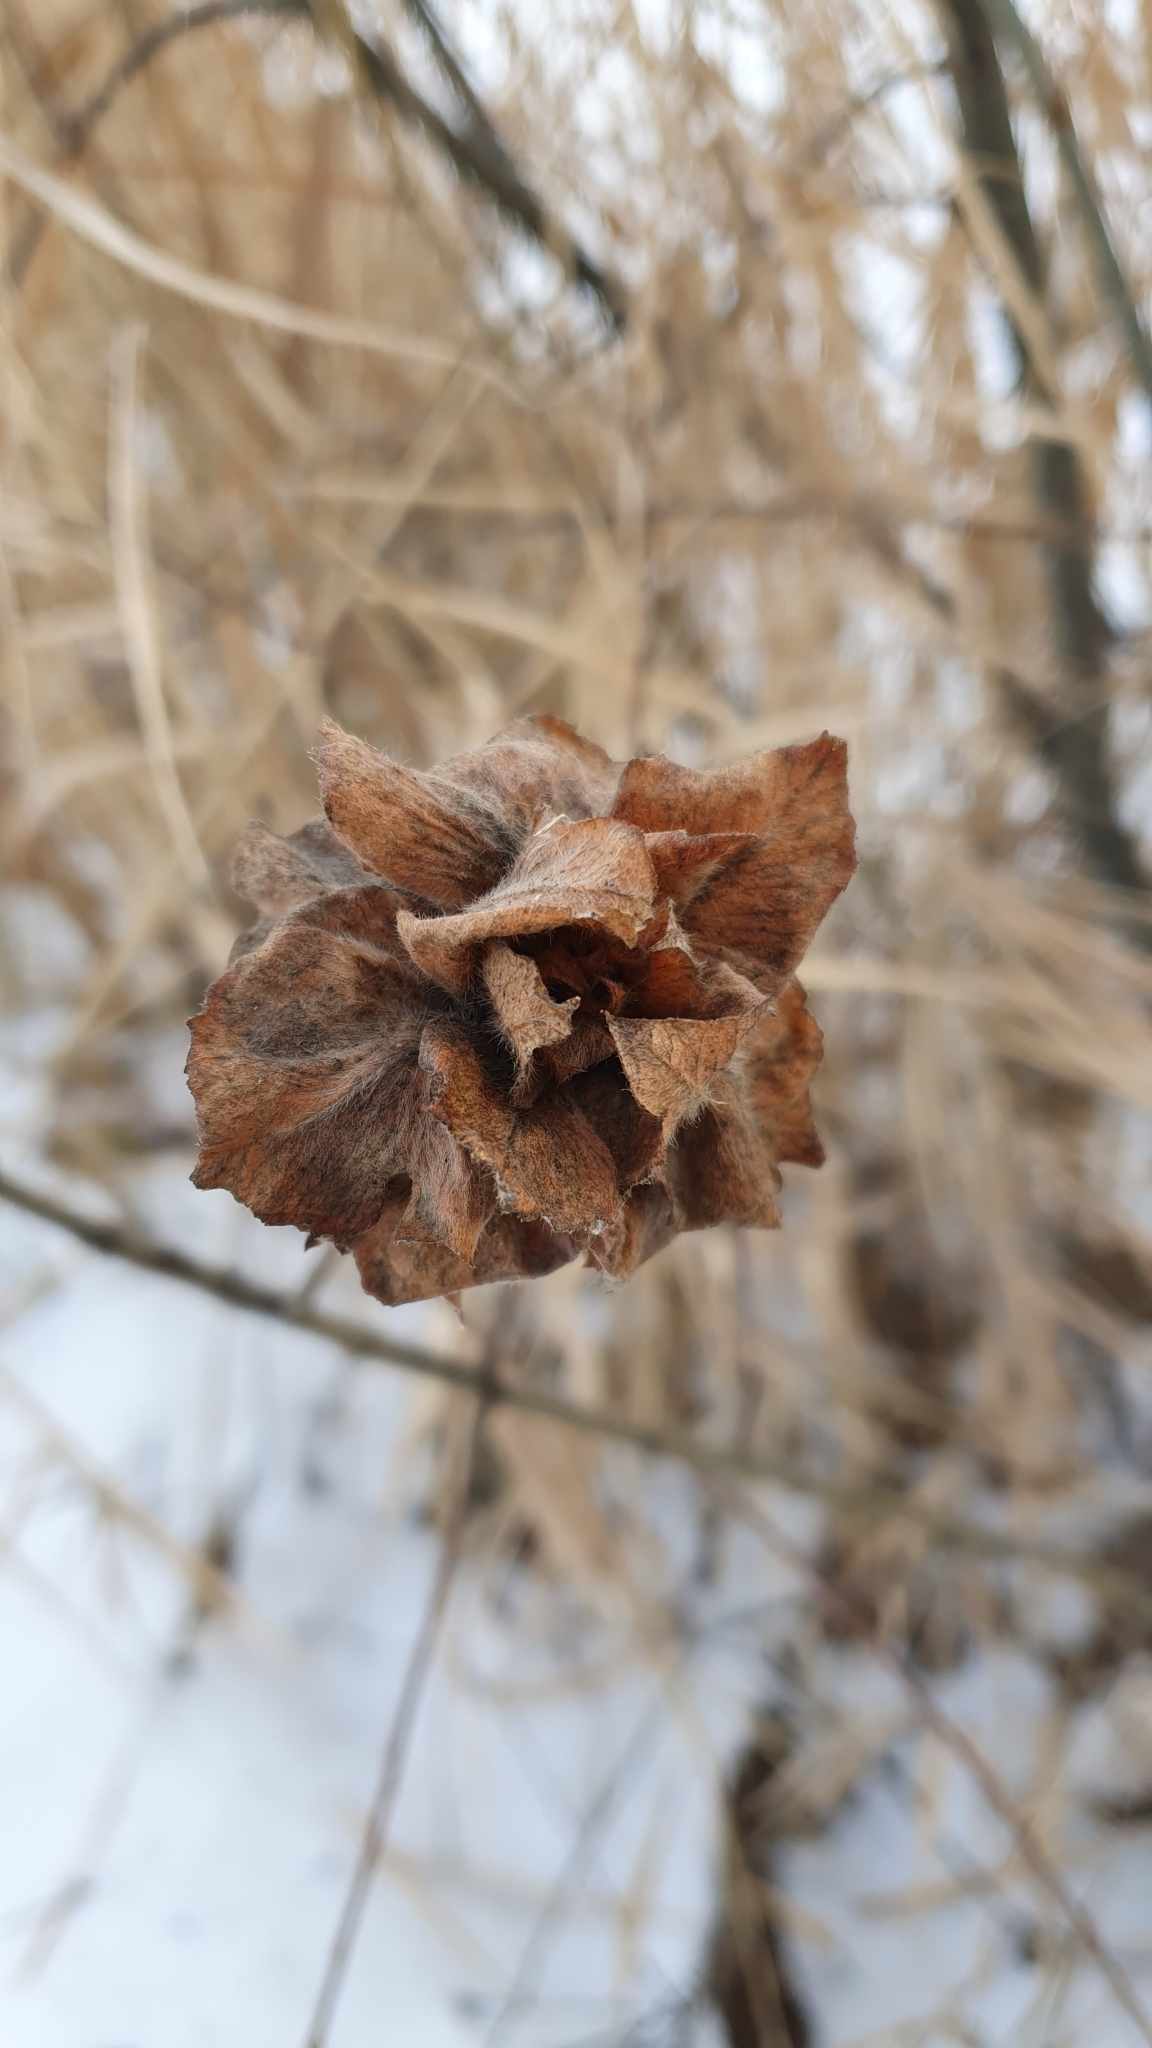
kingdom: Animalia
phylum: Arthropoda
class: Insecta
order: Diptera
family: Cecidomyiidae
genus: Rabdophaga
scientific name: Rabdophaga rosaria
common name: Willow rose gall midge
